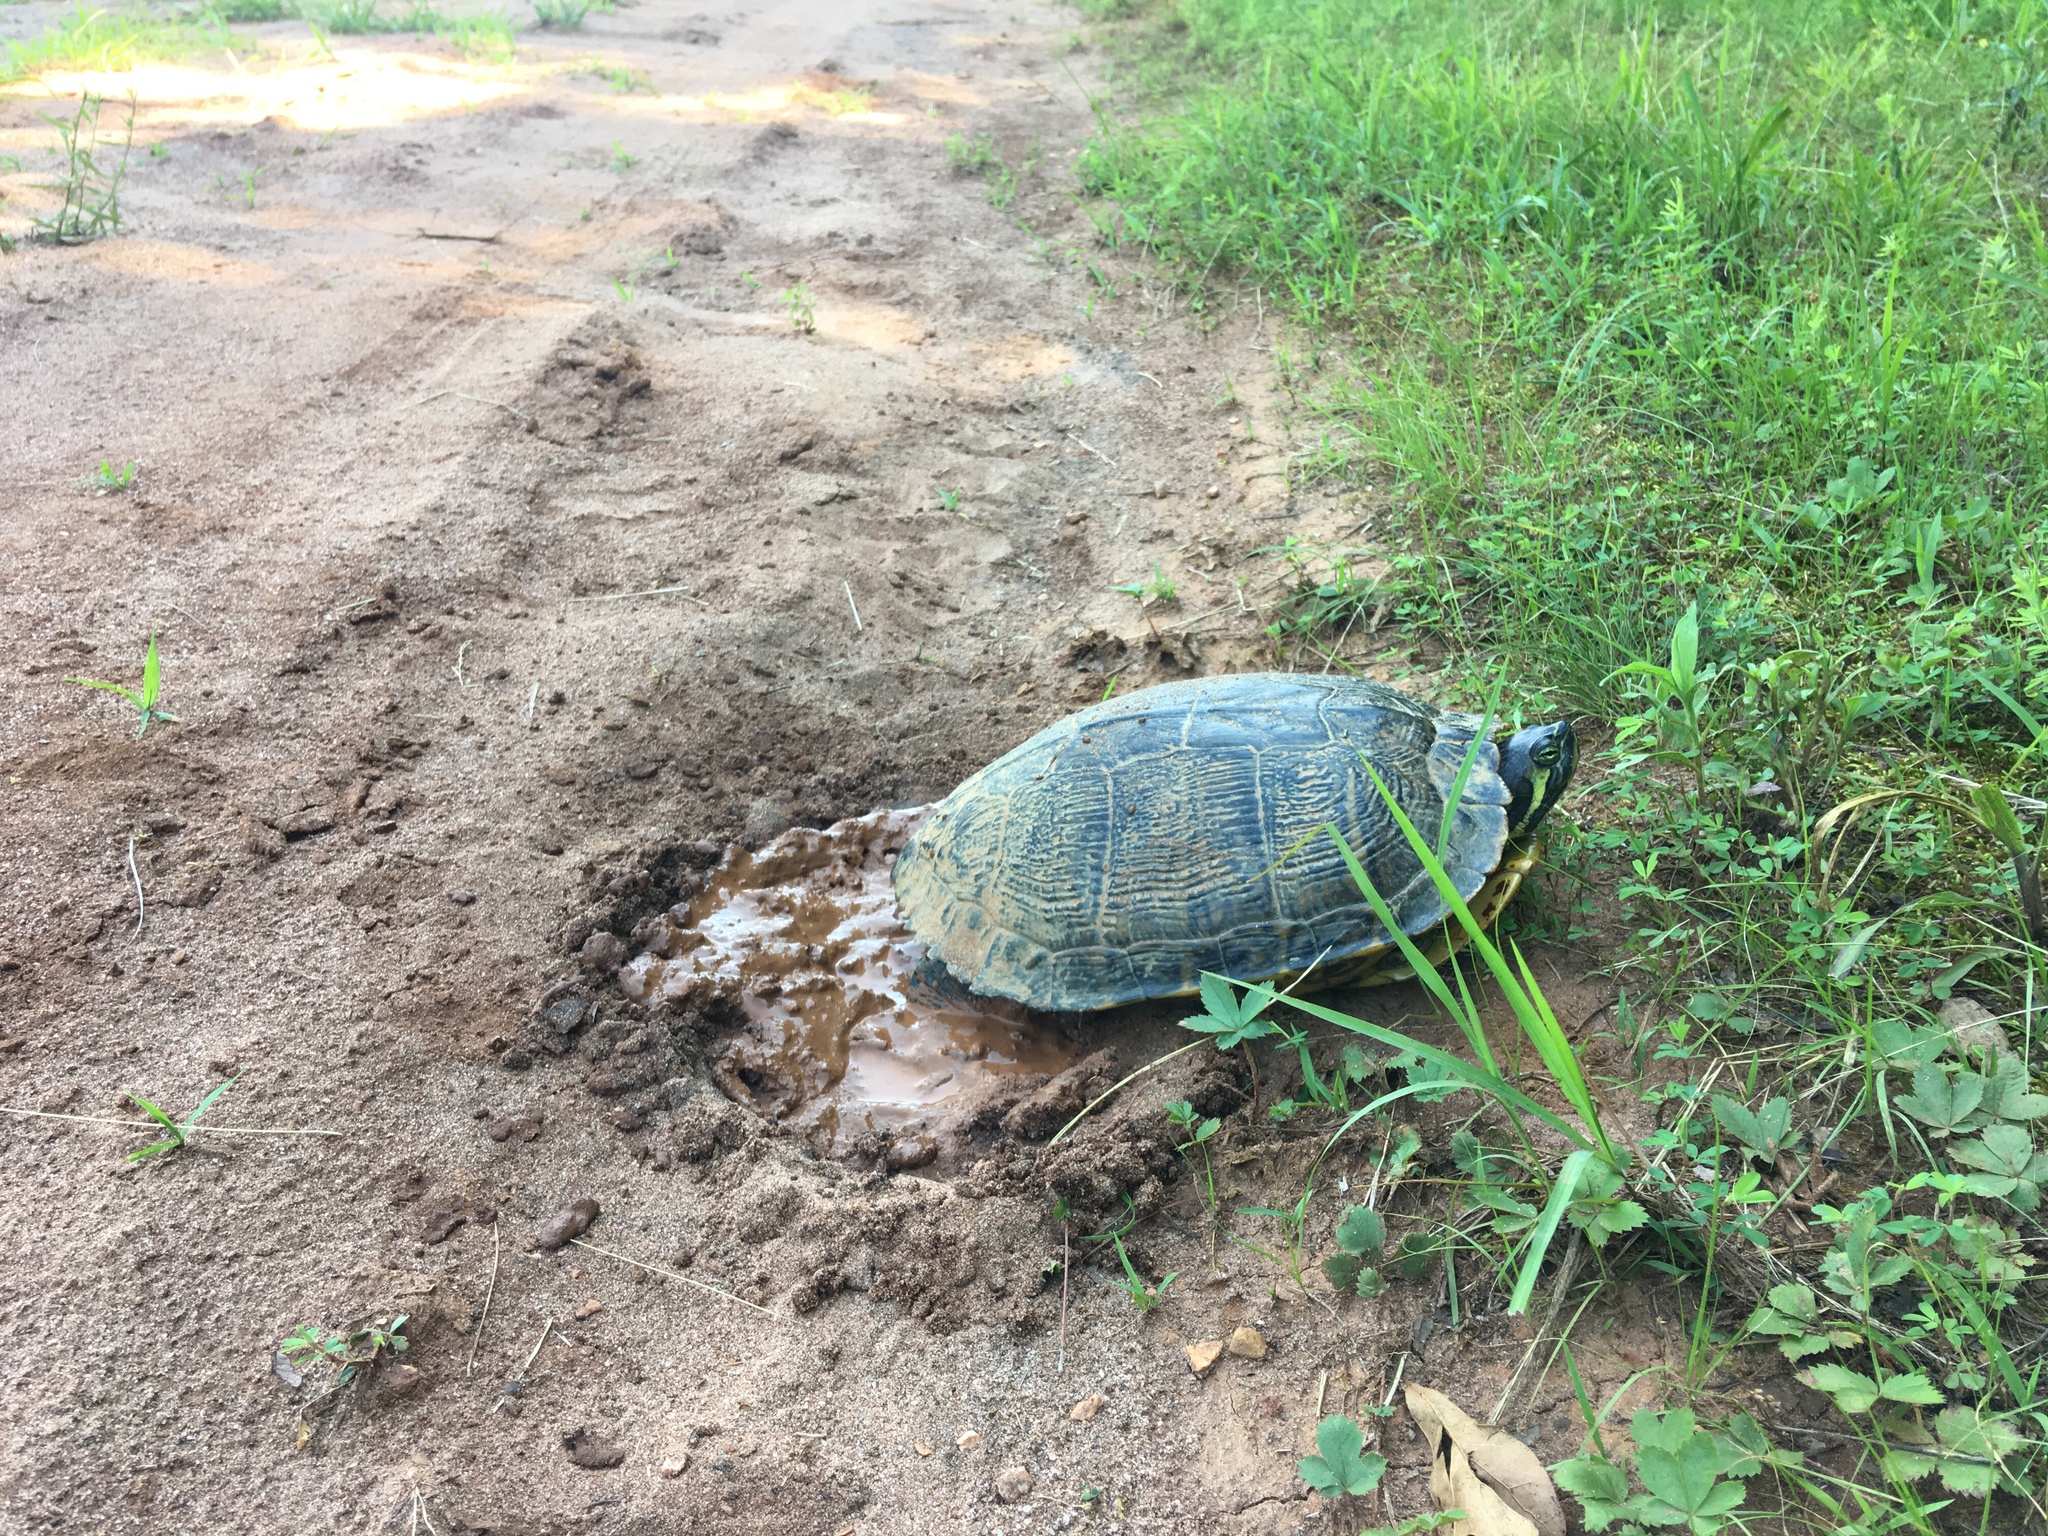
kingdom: Animalia
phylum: Chordata
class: Testudines
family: Emydidae
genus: Trachemys
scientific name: Trachemys scripta
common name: Slider
